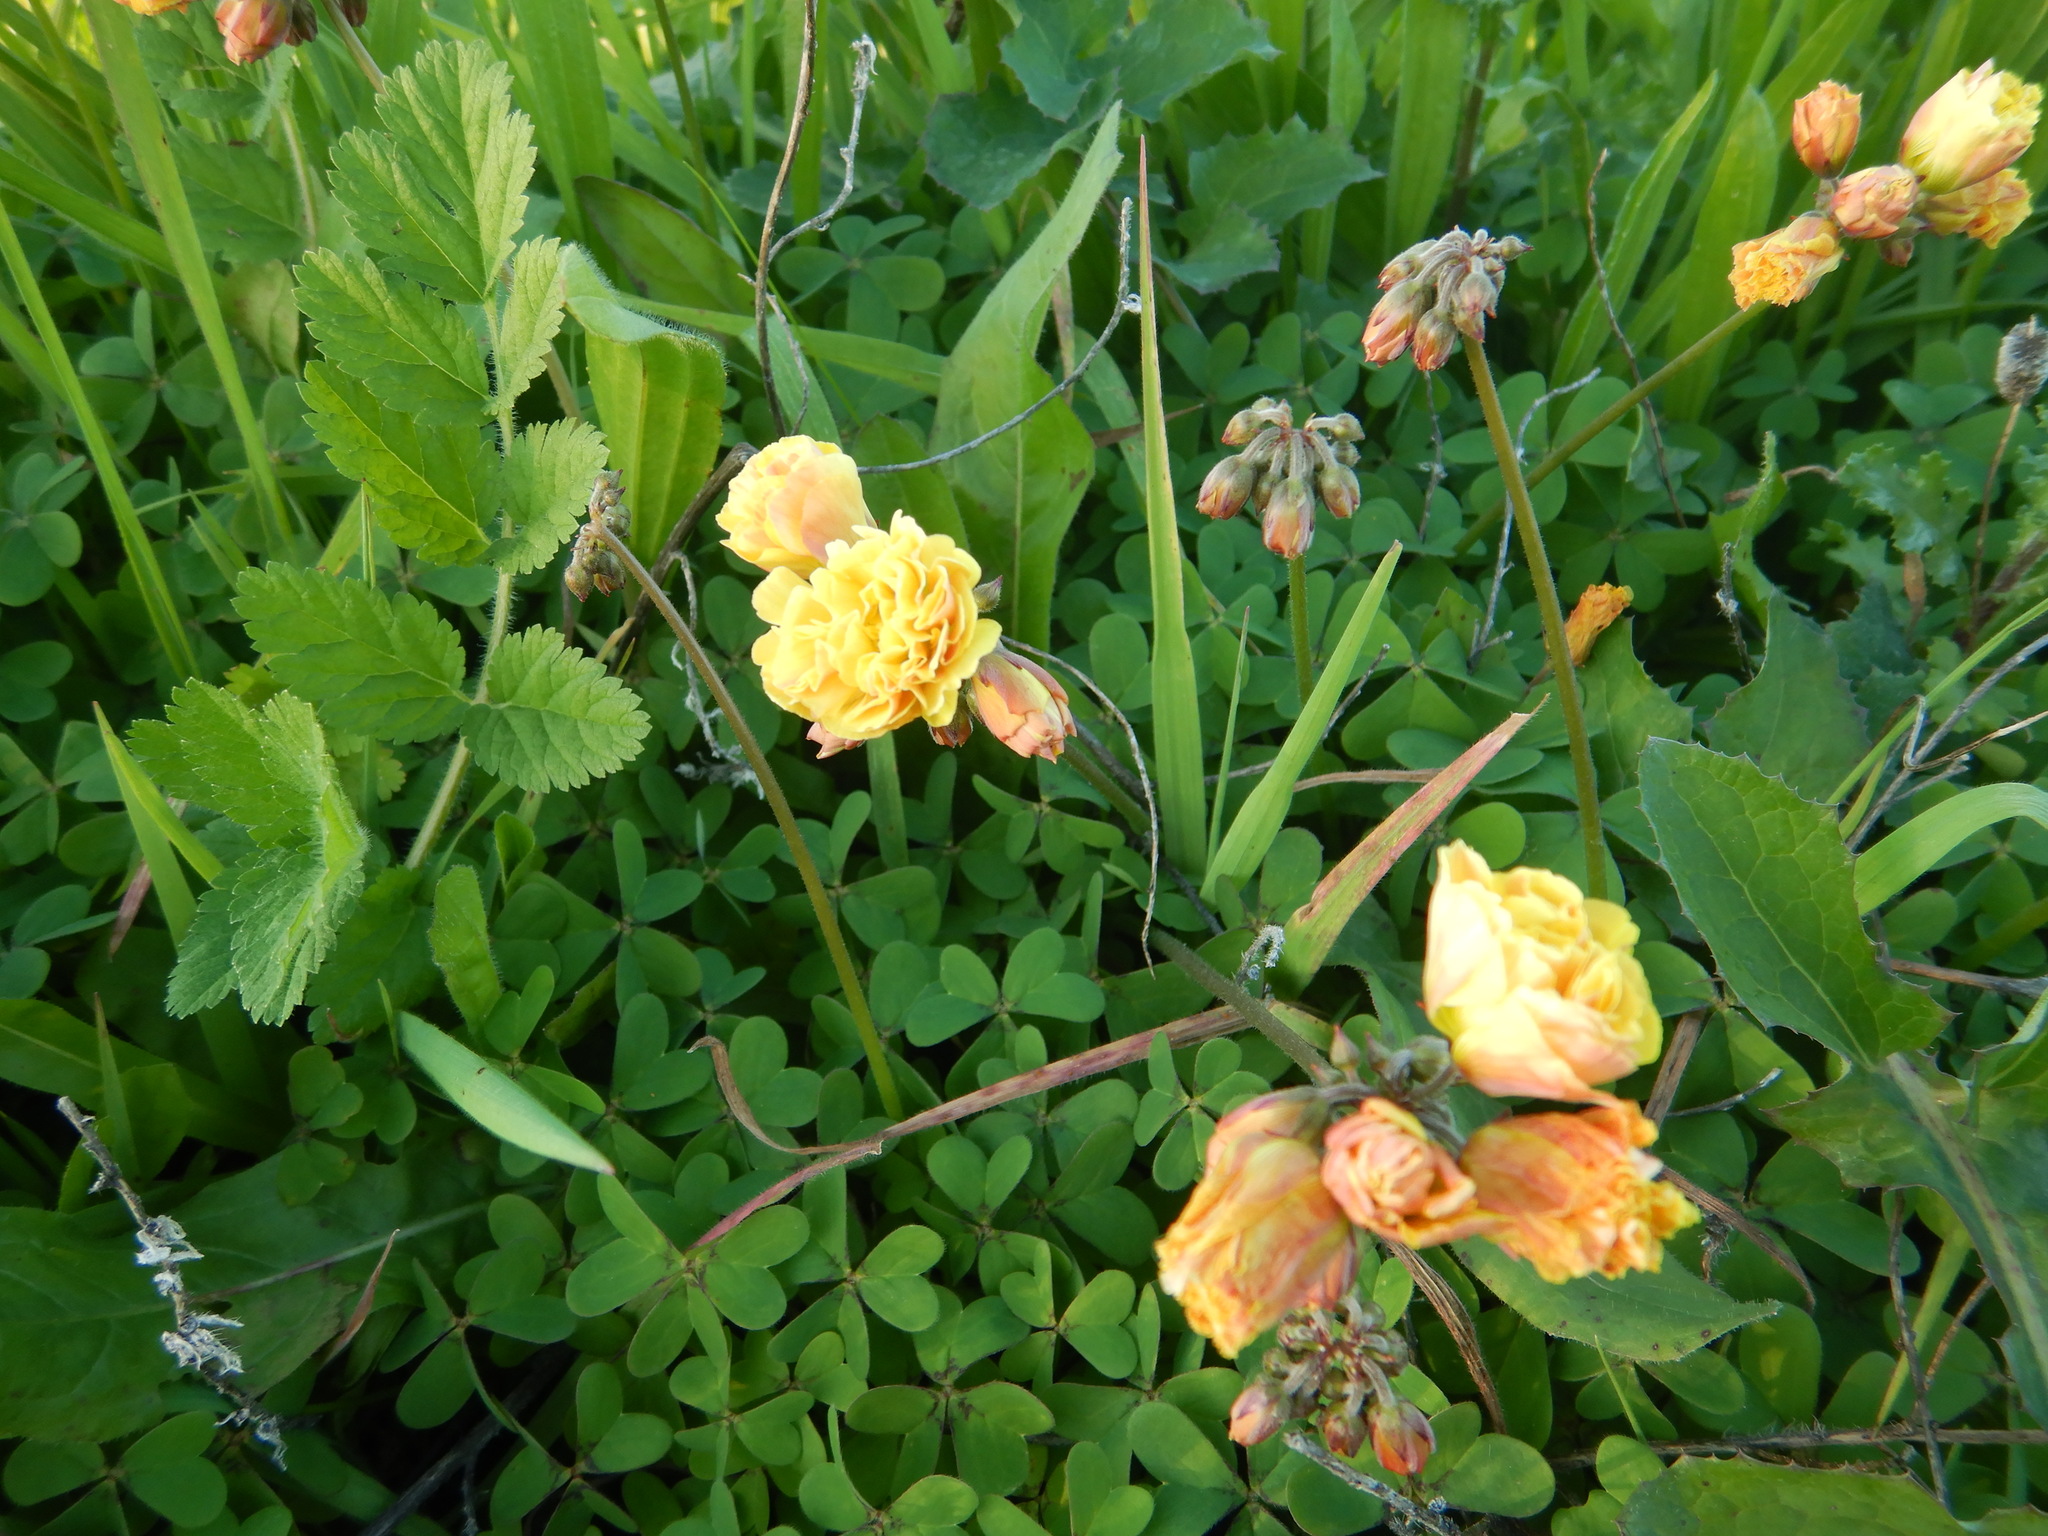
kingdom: Plantae
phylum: Tracheophyta
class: Magnoliopsida
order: Oxalidales
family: Oxalidaceae
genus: Oxalis
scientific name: Oxalis pes-caprae
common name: Bermuda-buttercup
